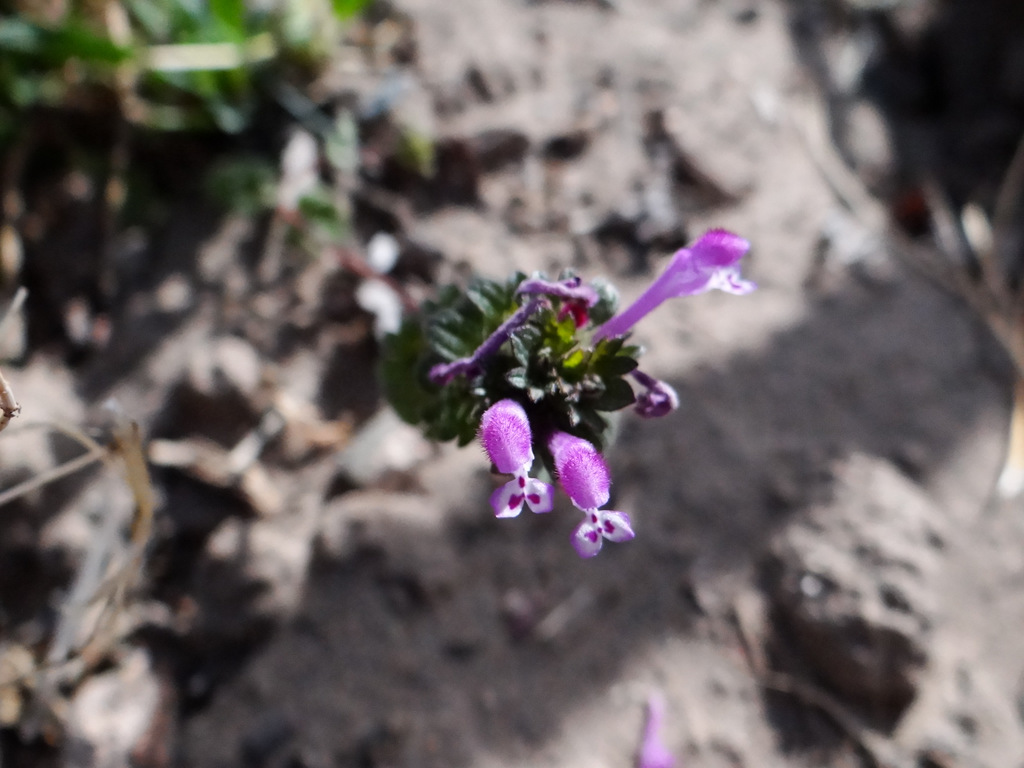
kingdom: Plantae
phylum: Tracheophyta
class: Magnoliopsida
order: Lamiales
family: Lamiaceae
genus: Lamium
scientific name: Lamium amplexicaule
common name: Henbit dead-nettle
